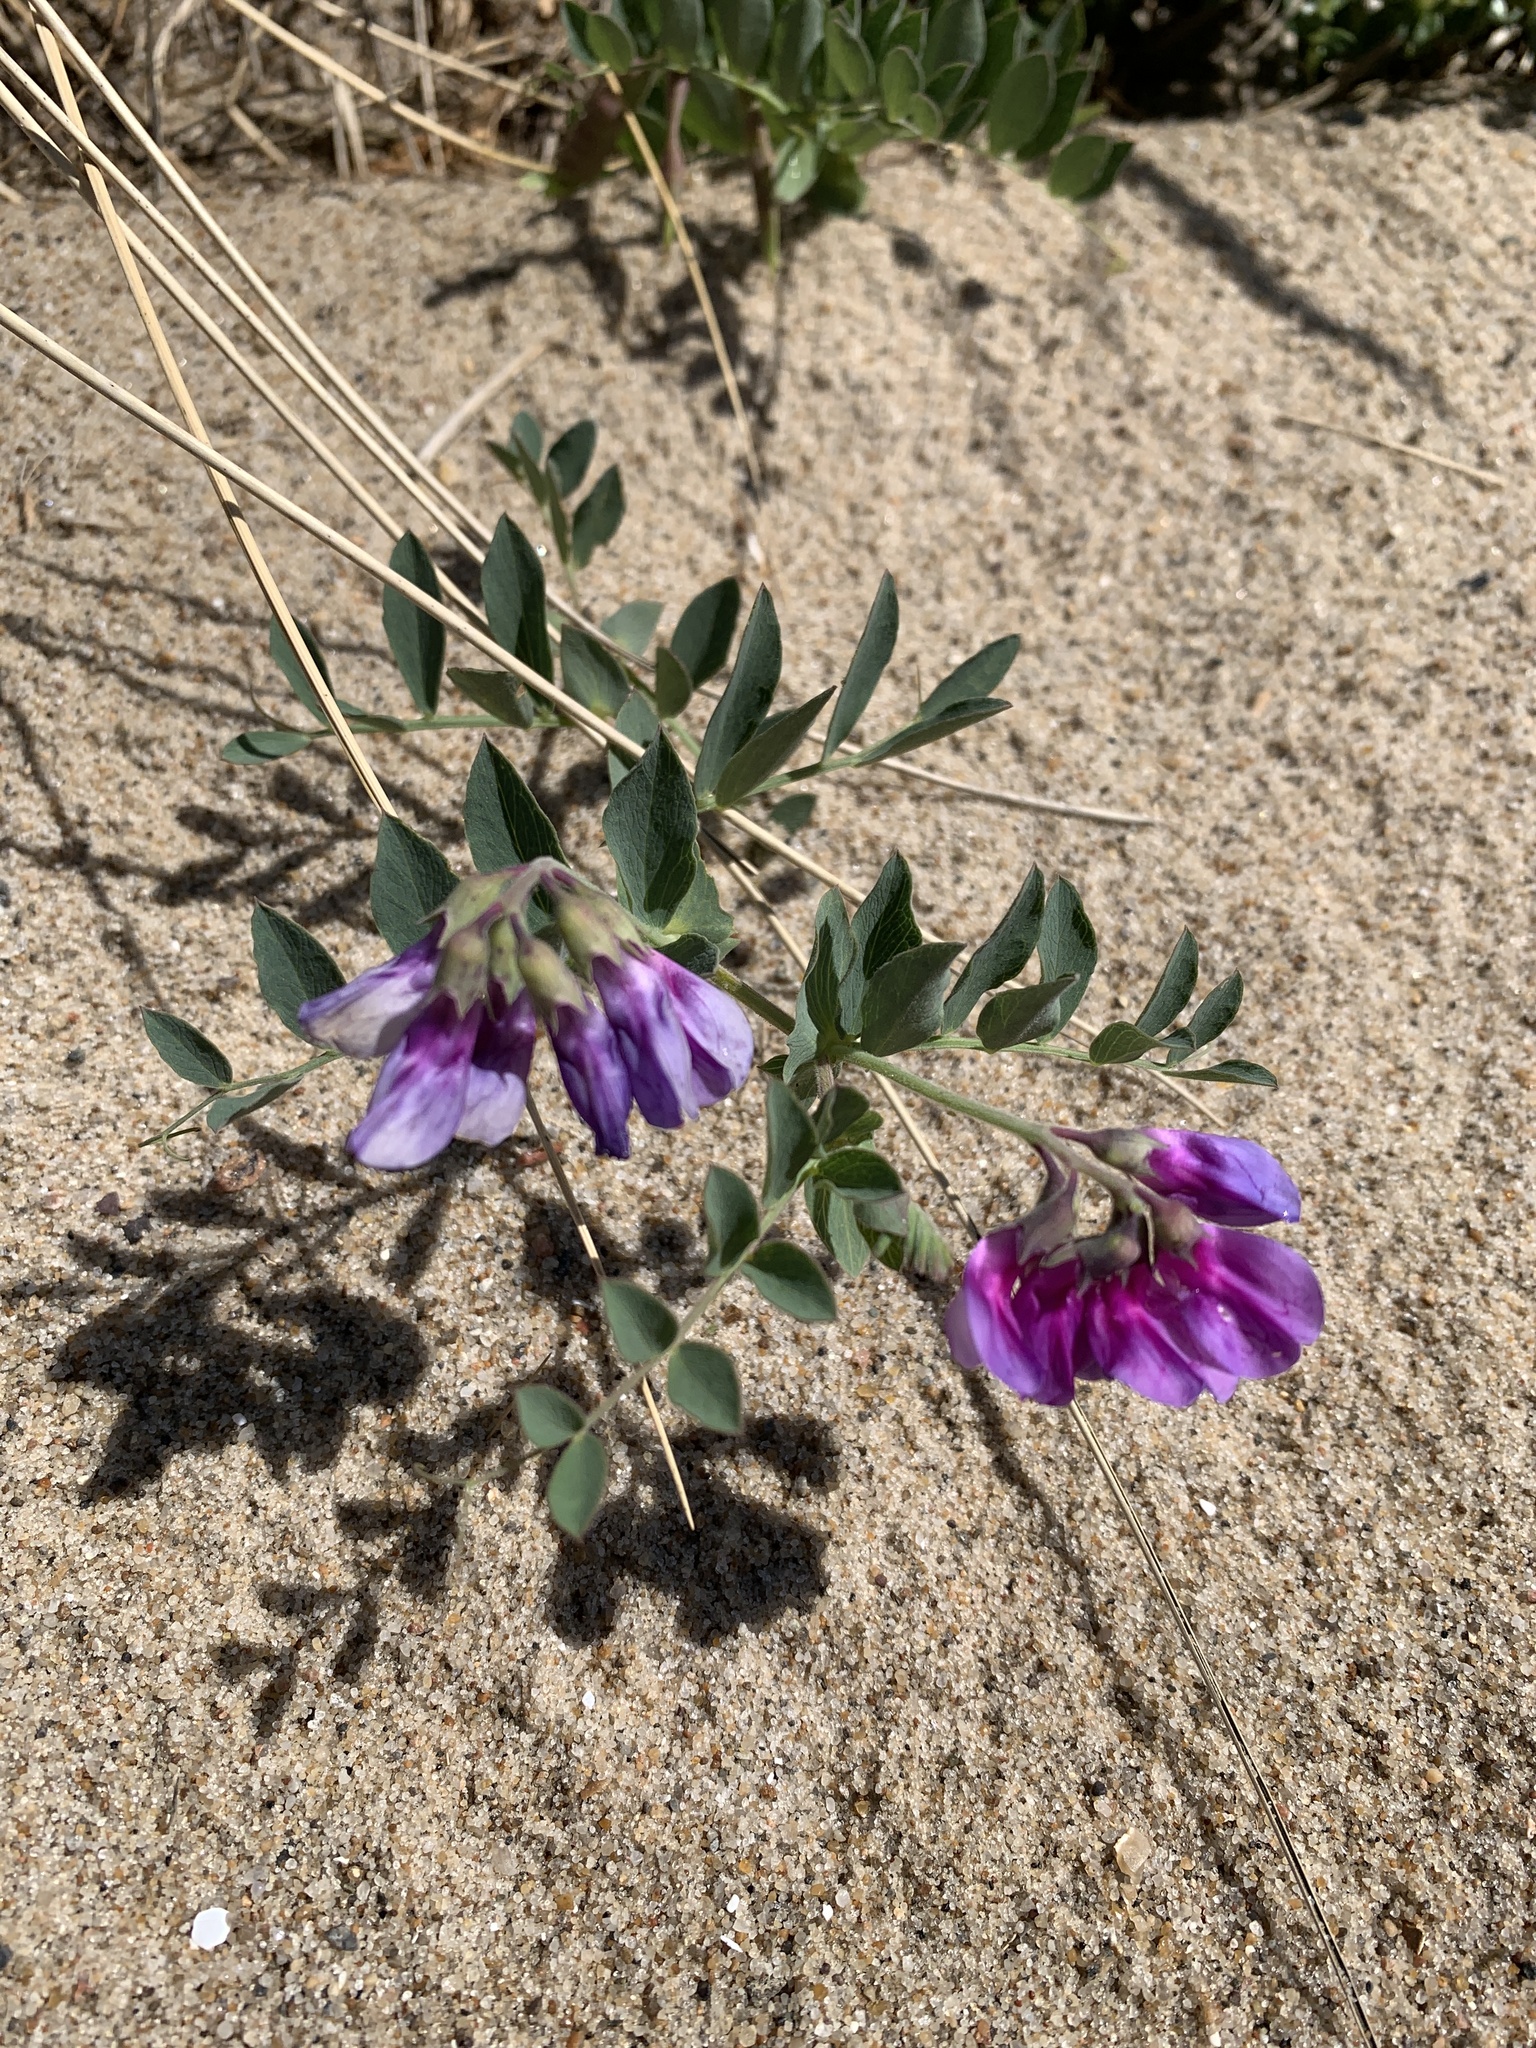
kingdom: Plantae
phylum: Tracheophyta
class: Magnoliopsida
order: Fabales
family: Fabaceae
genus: Lathyrus
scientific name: Lathyrus japonicus
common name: Sea pea
